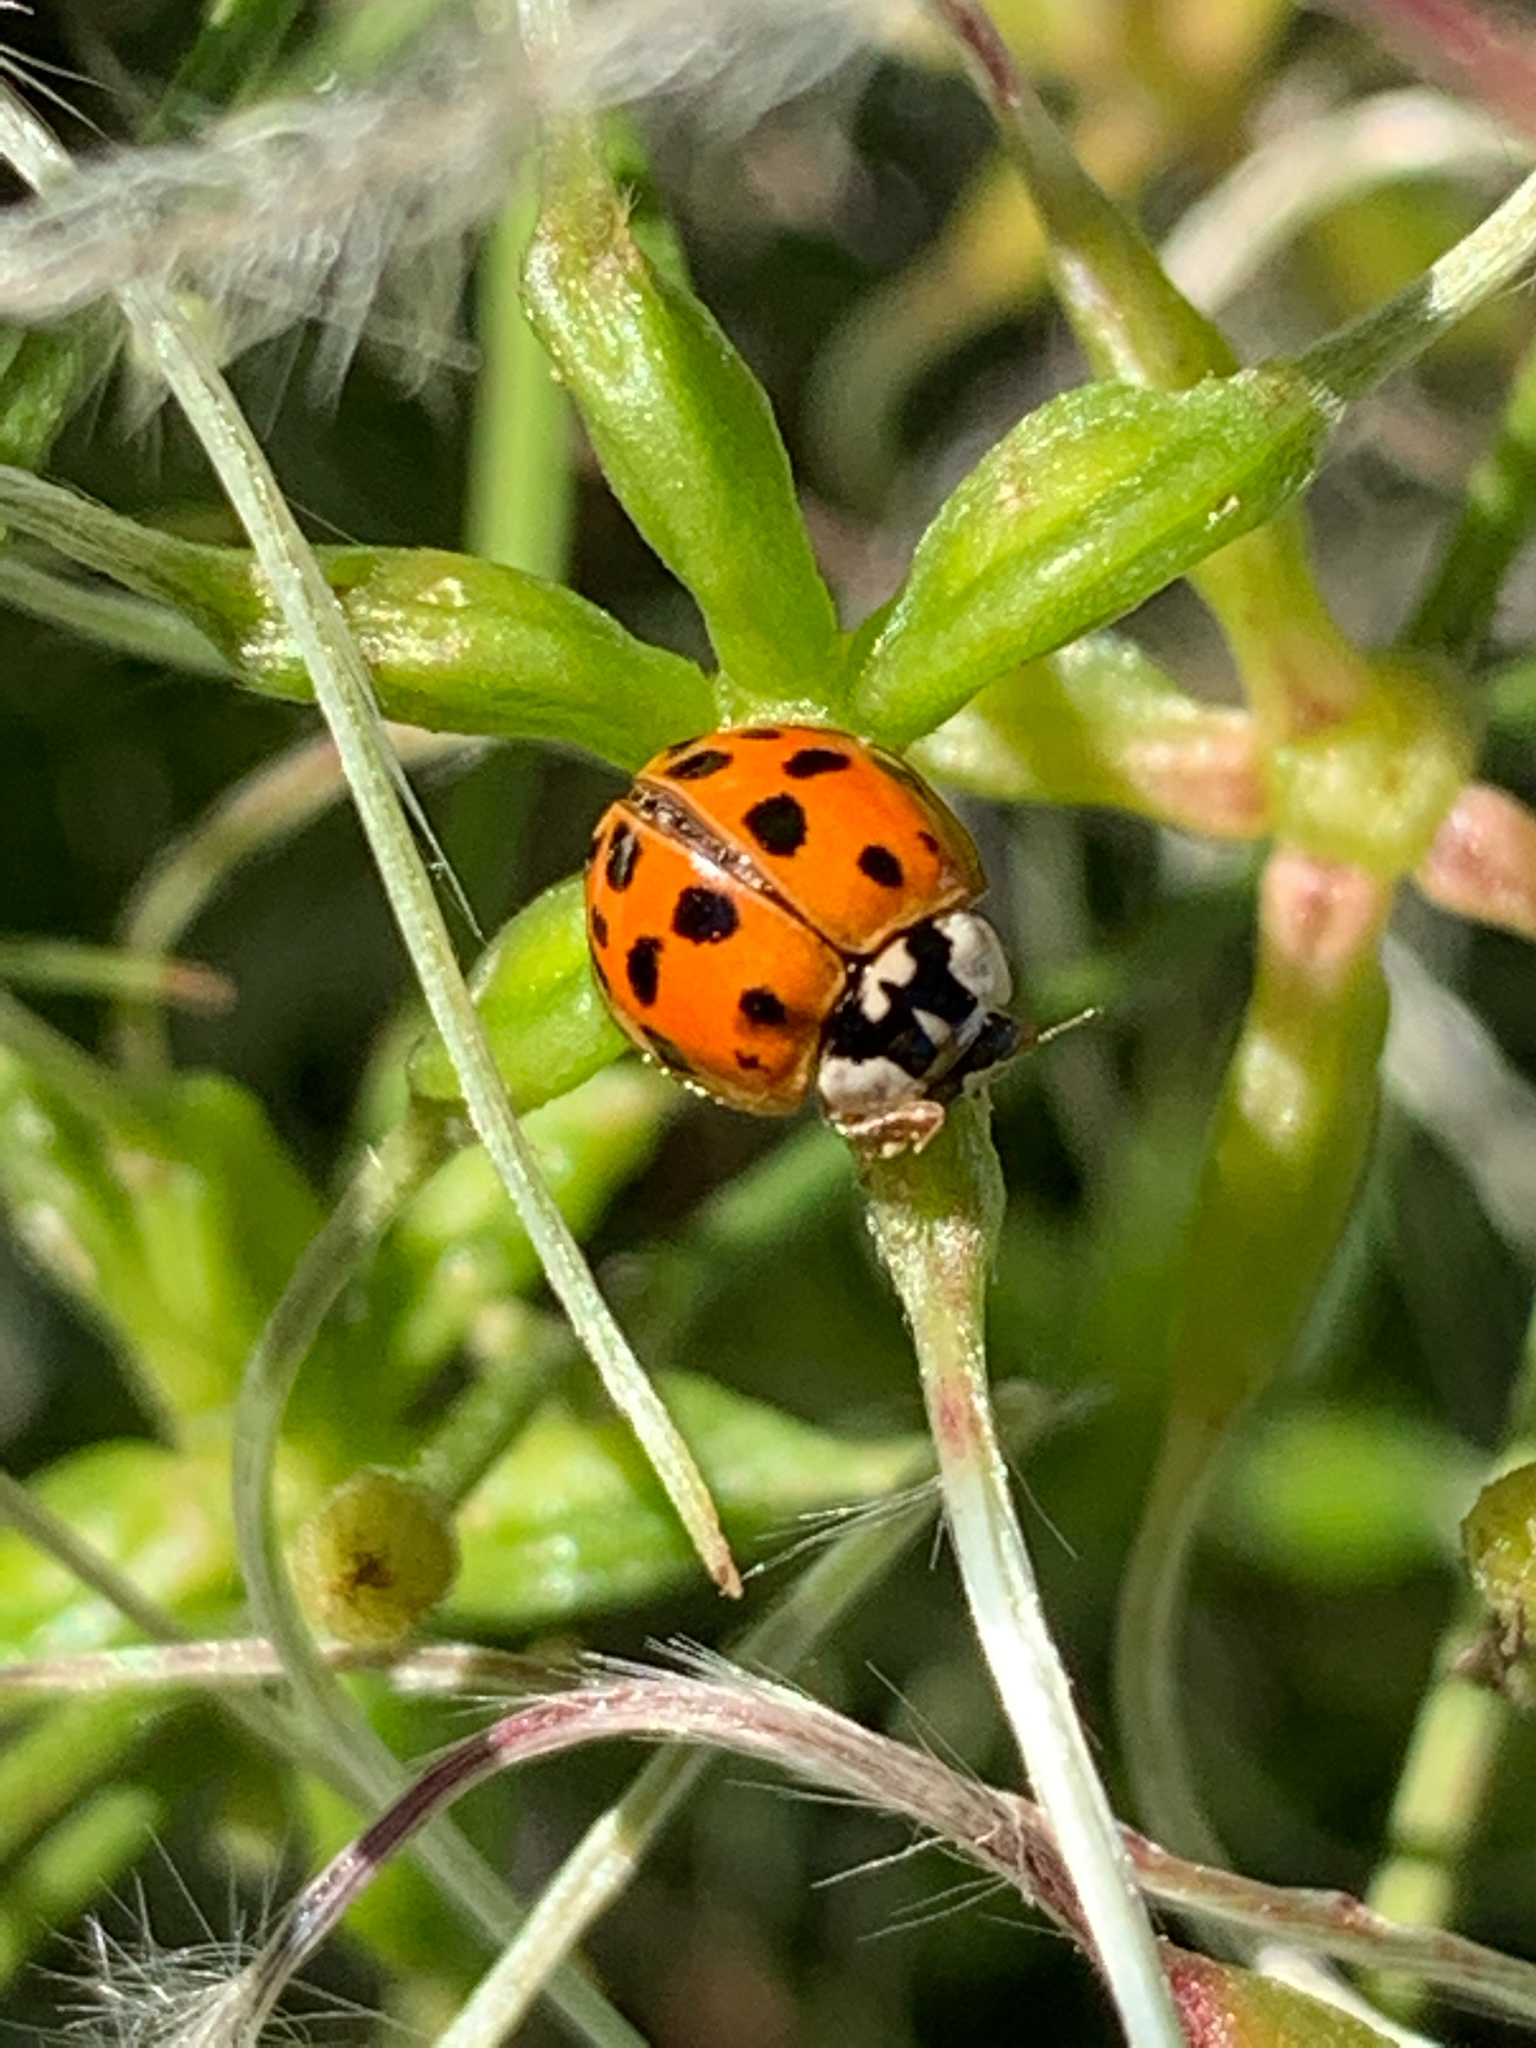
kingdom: Animalia
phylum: Arthropoda
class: Insecta
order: Coleoptera
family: Coccinellidae
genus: Harmonia
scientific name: Harmonia axyridis
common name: Harlequin ladybird
